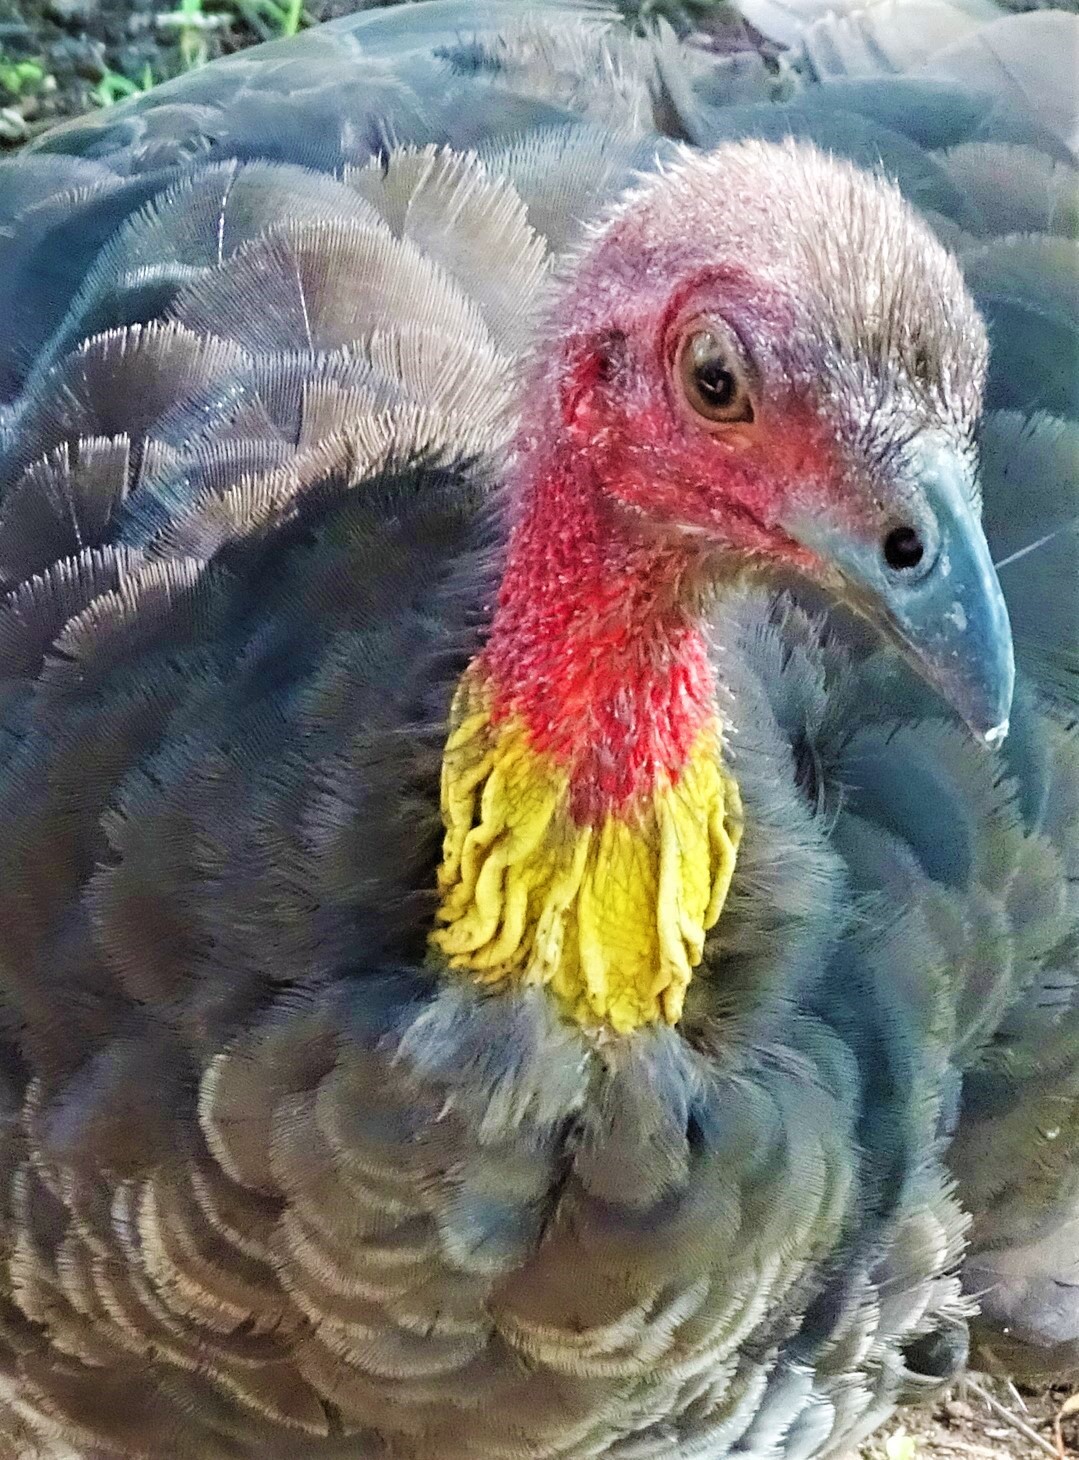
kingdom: Animalia
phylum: Chordata
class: Aves
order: Galliformes
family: Megapodiidae
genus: Alectura
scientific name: Alectura lathami
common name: Australian brushturkey
